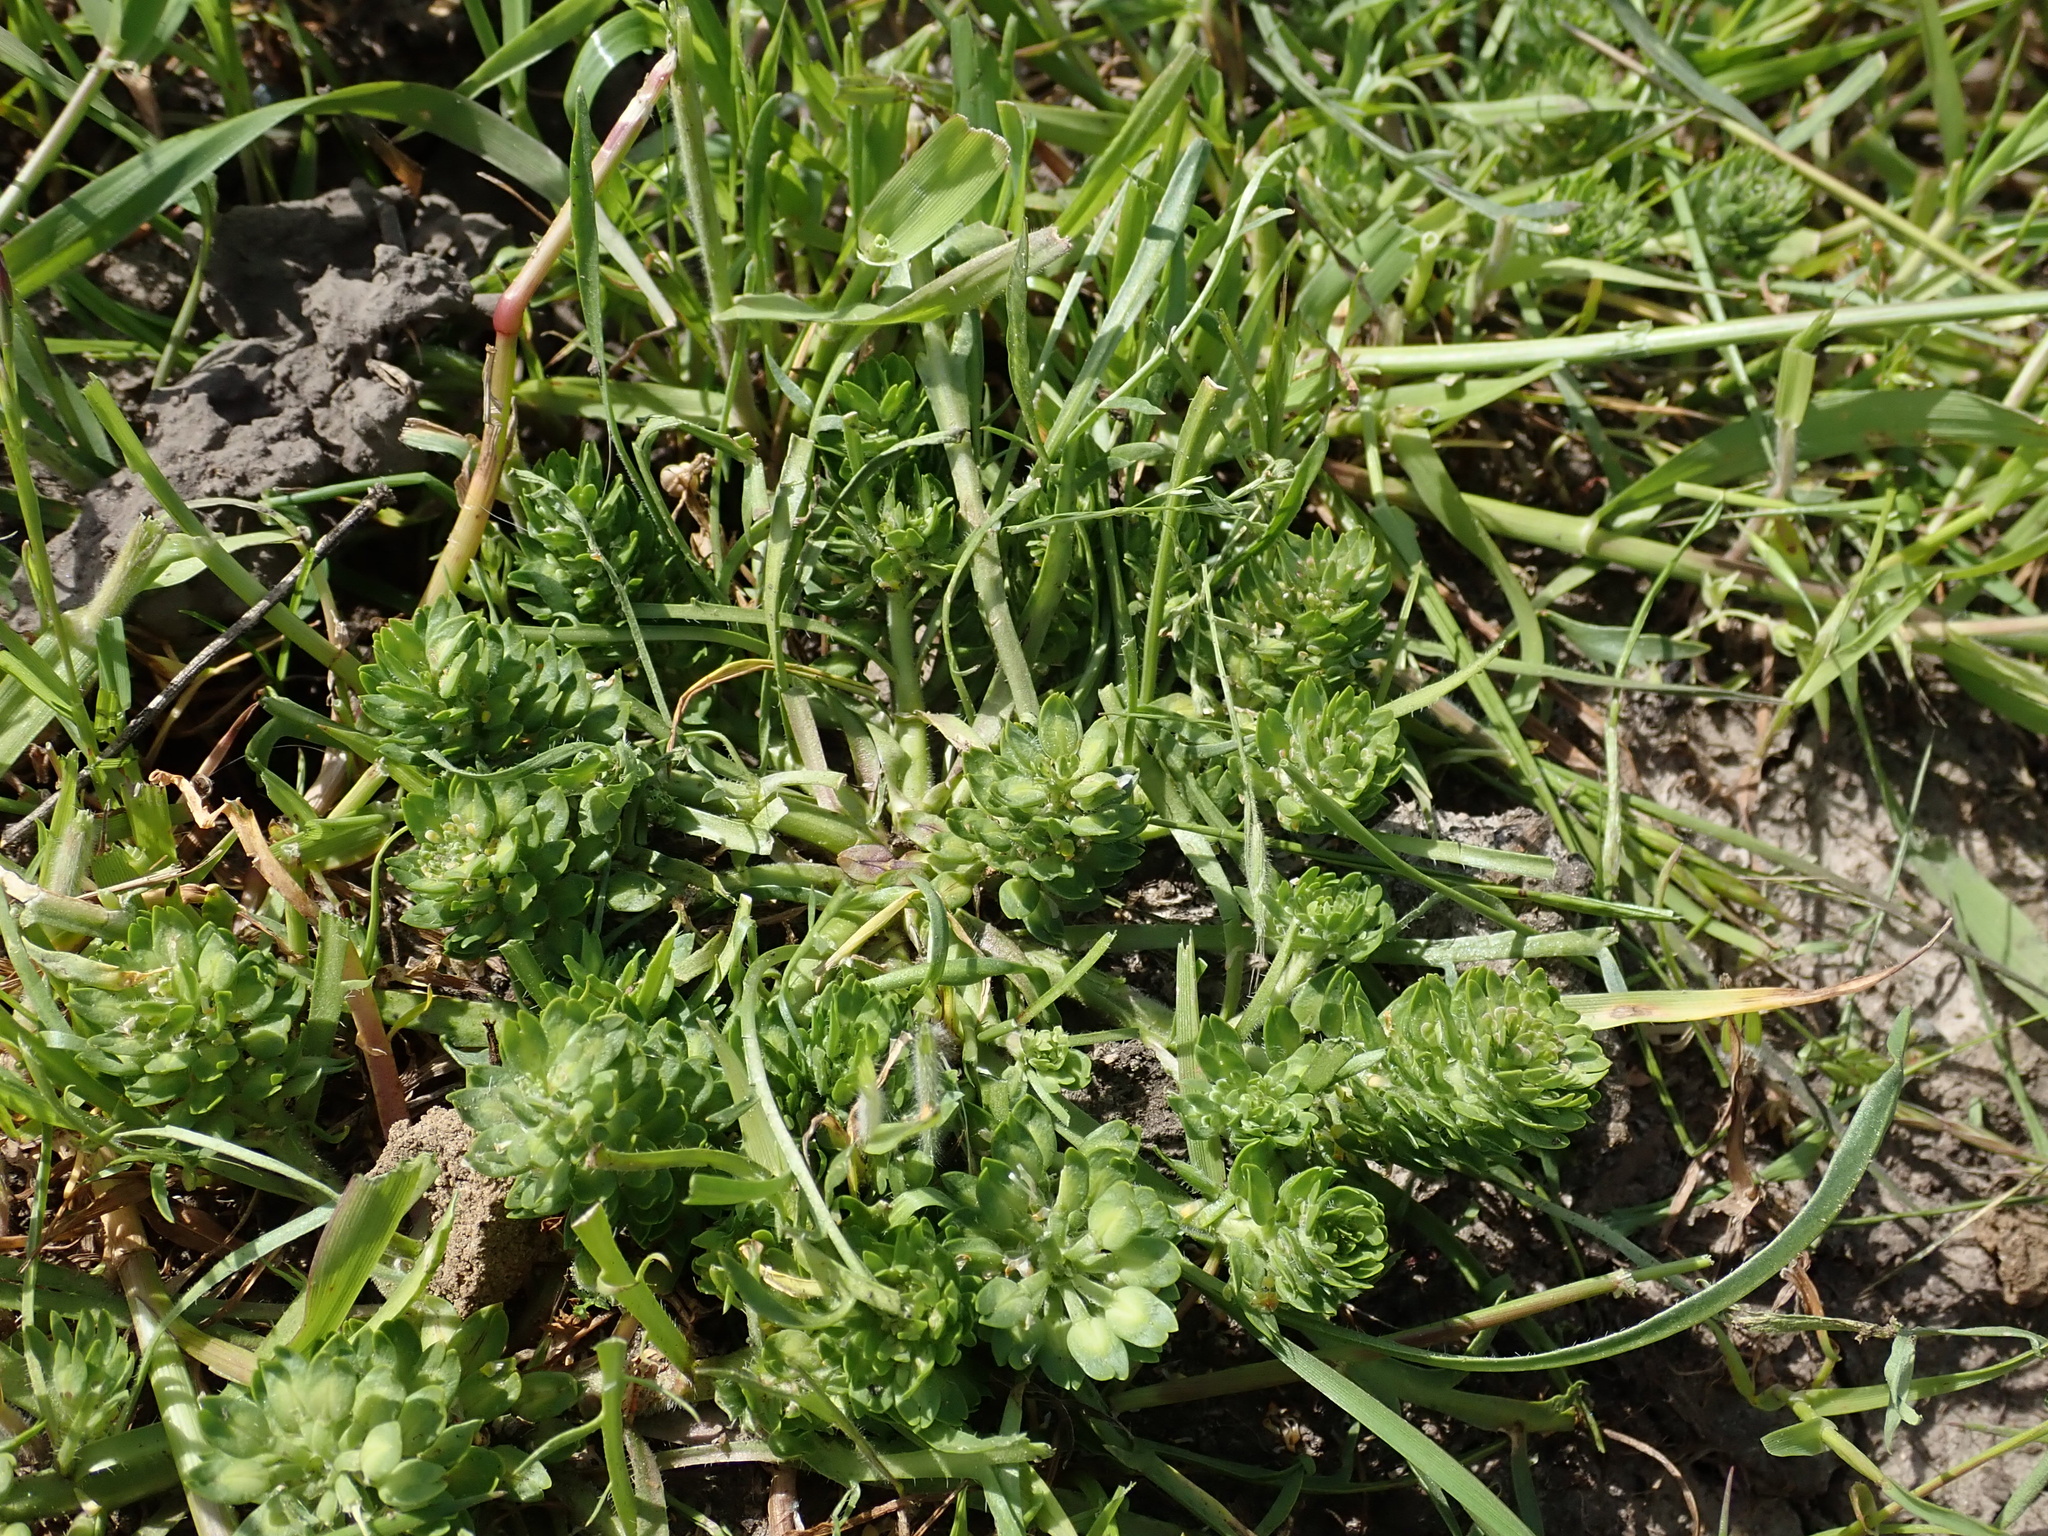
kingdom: Plantae
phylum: Tracheophyta
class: Magnoliopsida
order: Brassicales
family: Brassicaceae
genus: Lepidium
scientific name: Lepidium latipes
